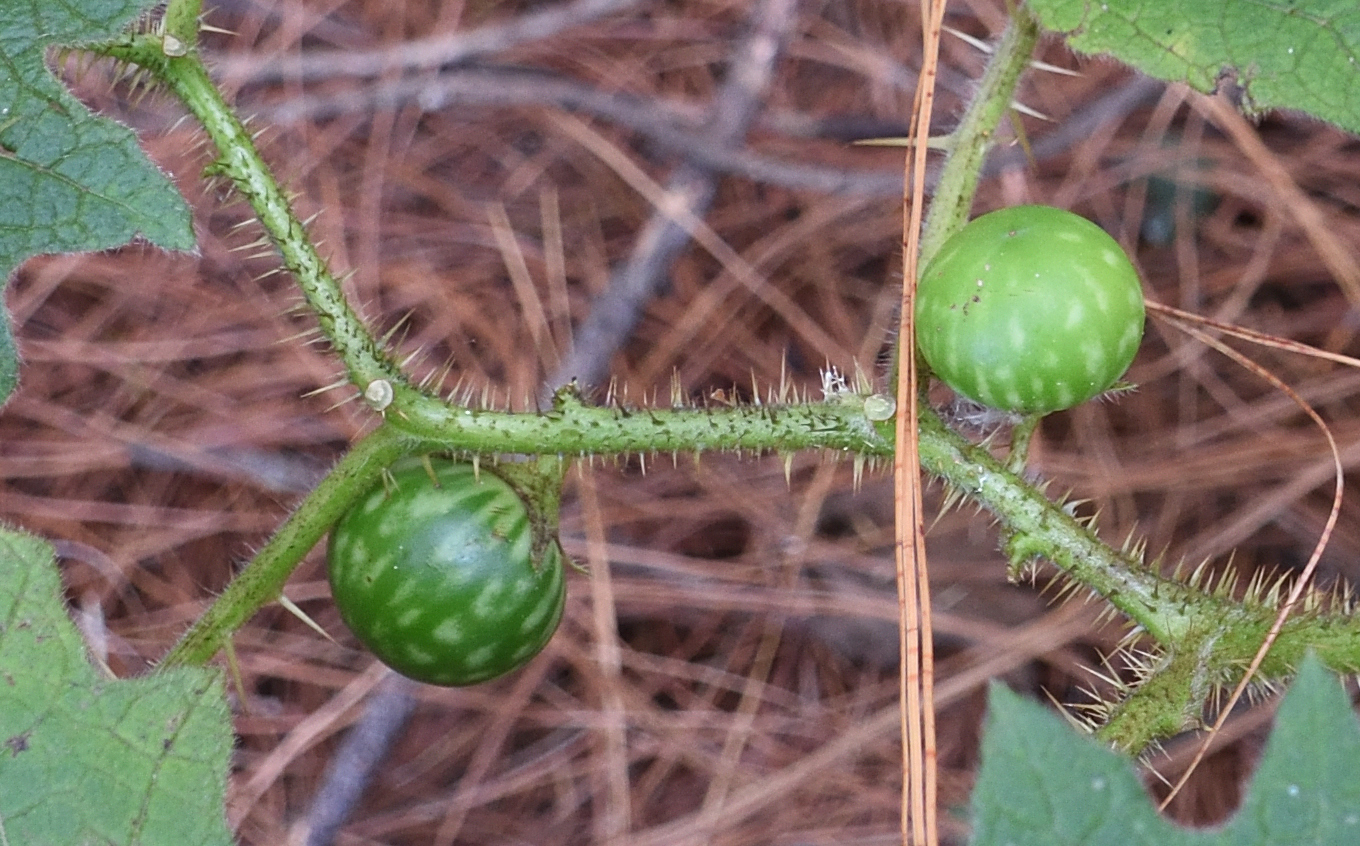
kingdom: Plantae
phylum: Tracheophyta
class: Magnoliopsida
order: Solanales
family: Solanaceae
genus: Solanum
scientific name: Solanum aculeatissimum
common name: Dutch eggplant
